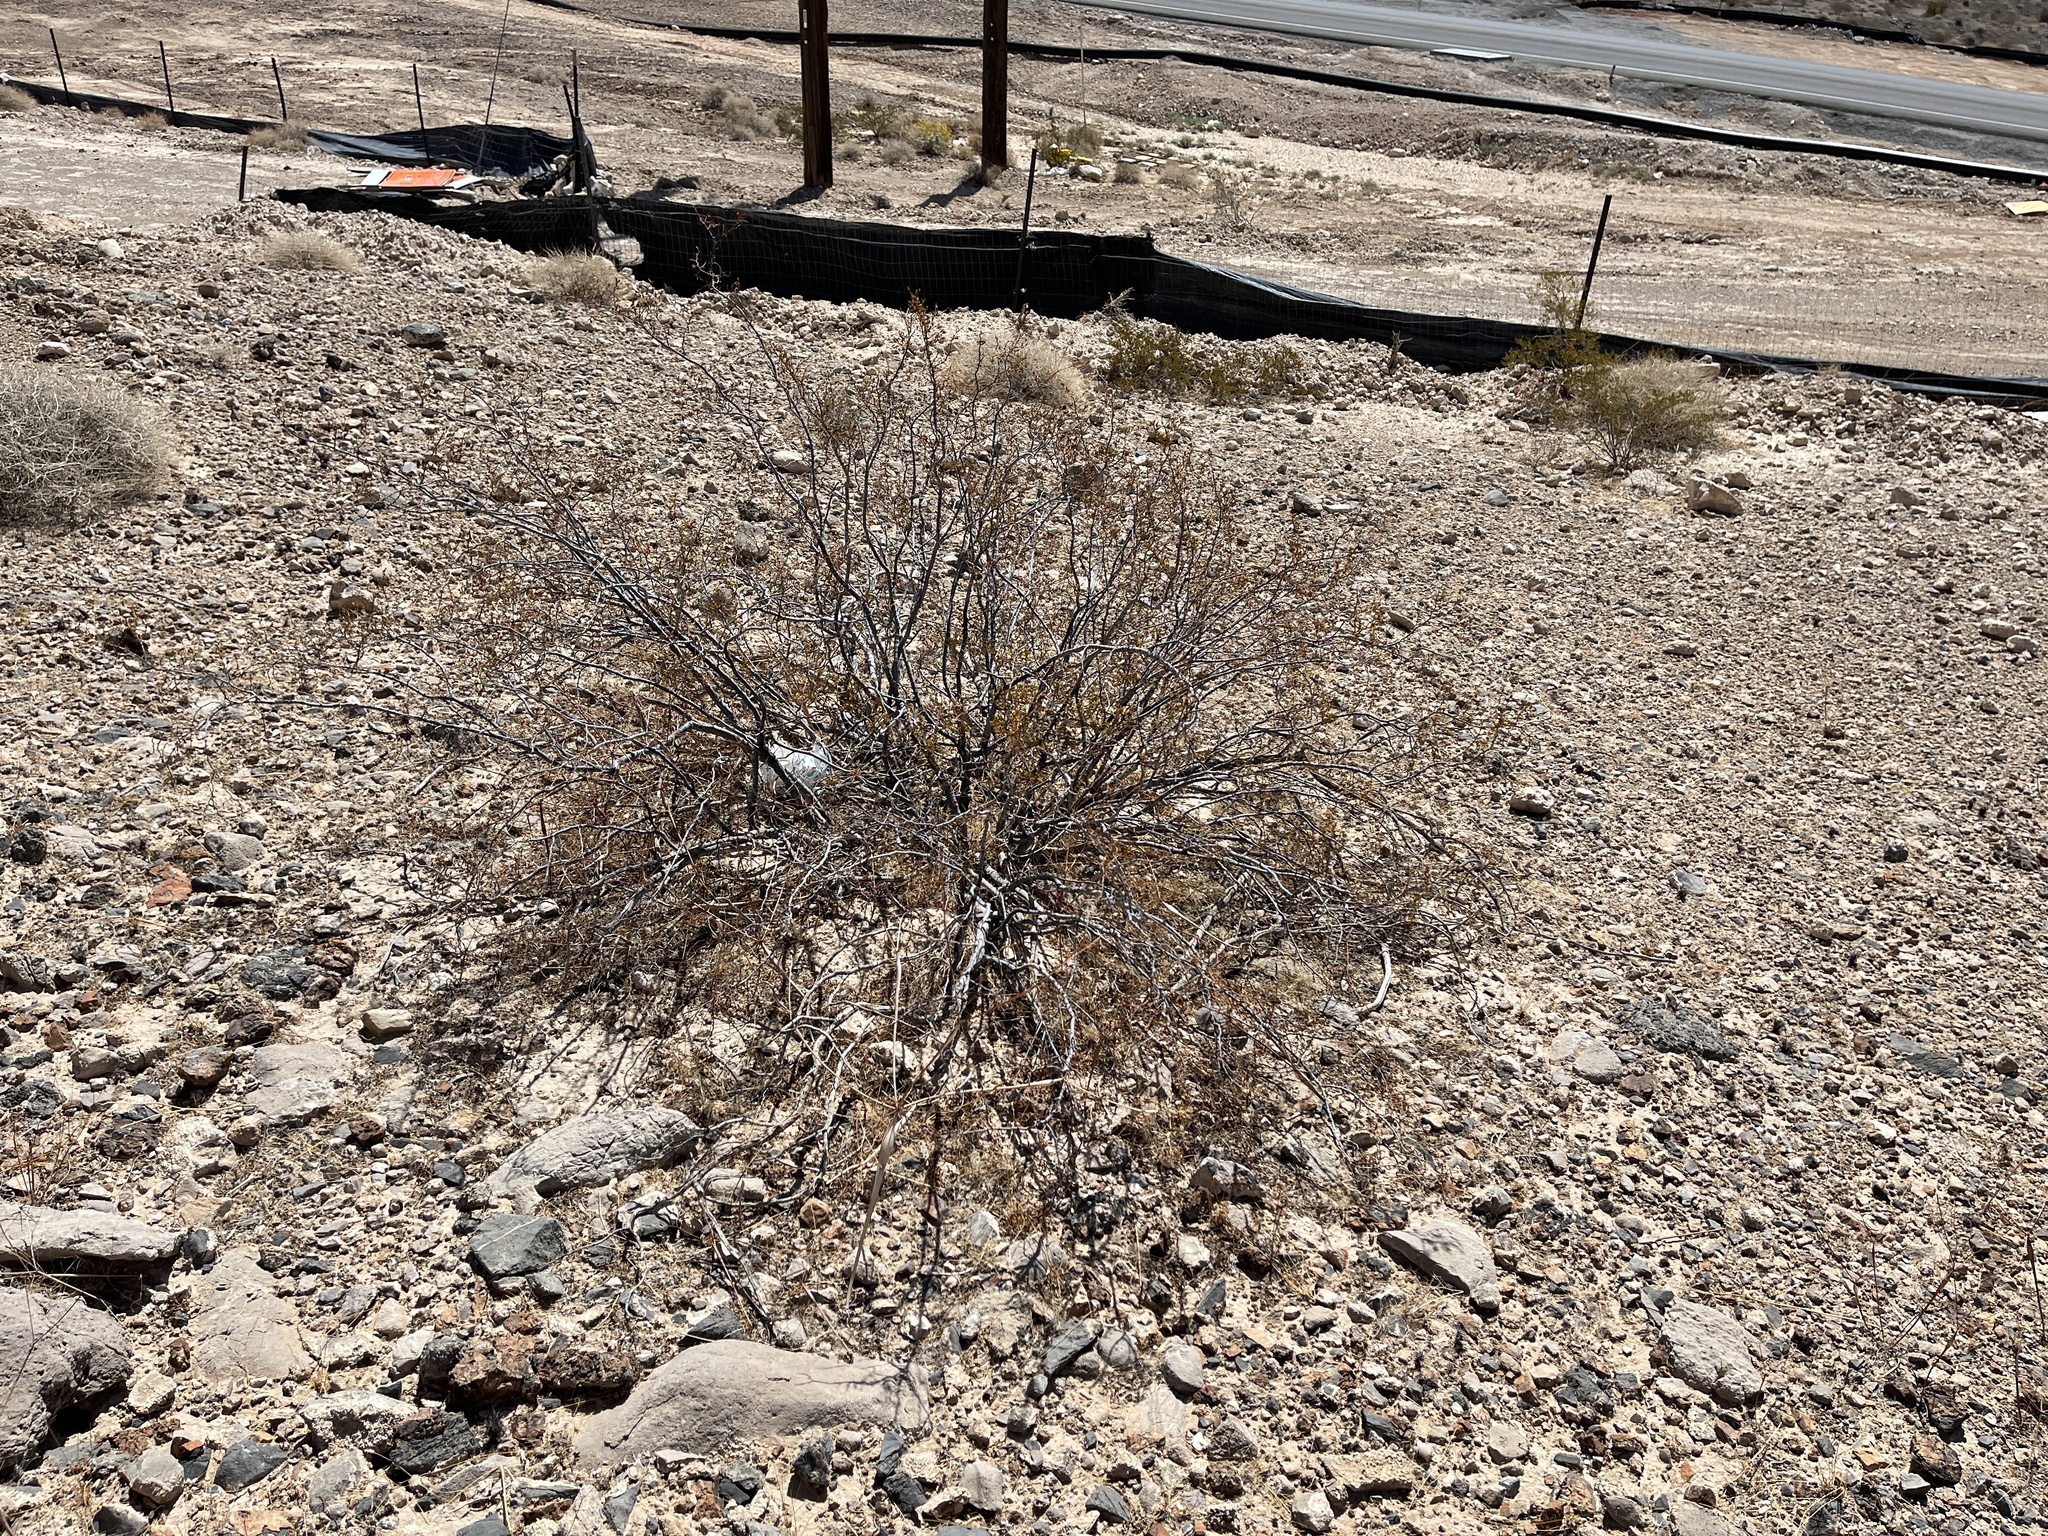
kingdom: Plantae
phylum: Tracheophyta
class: Magnoliopsida
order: Zygophyllales
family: Zygophyllaceae
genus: Larrea
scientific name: Larrea tridentata
